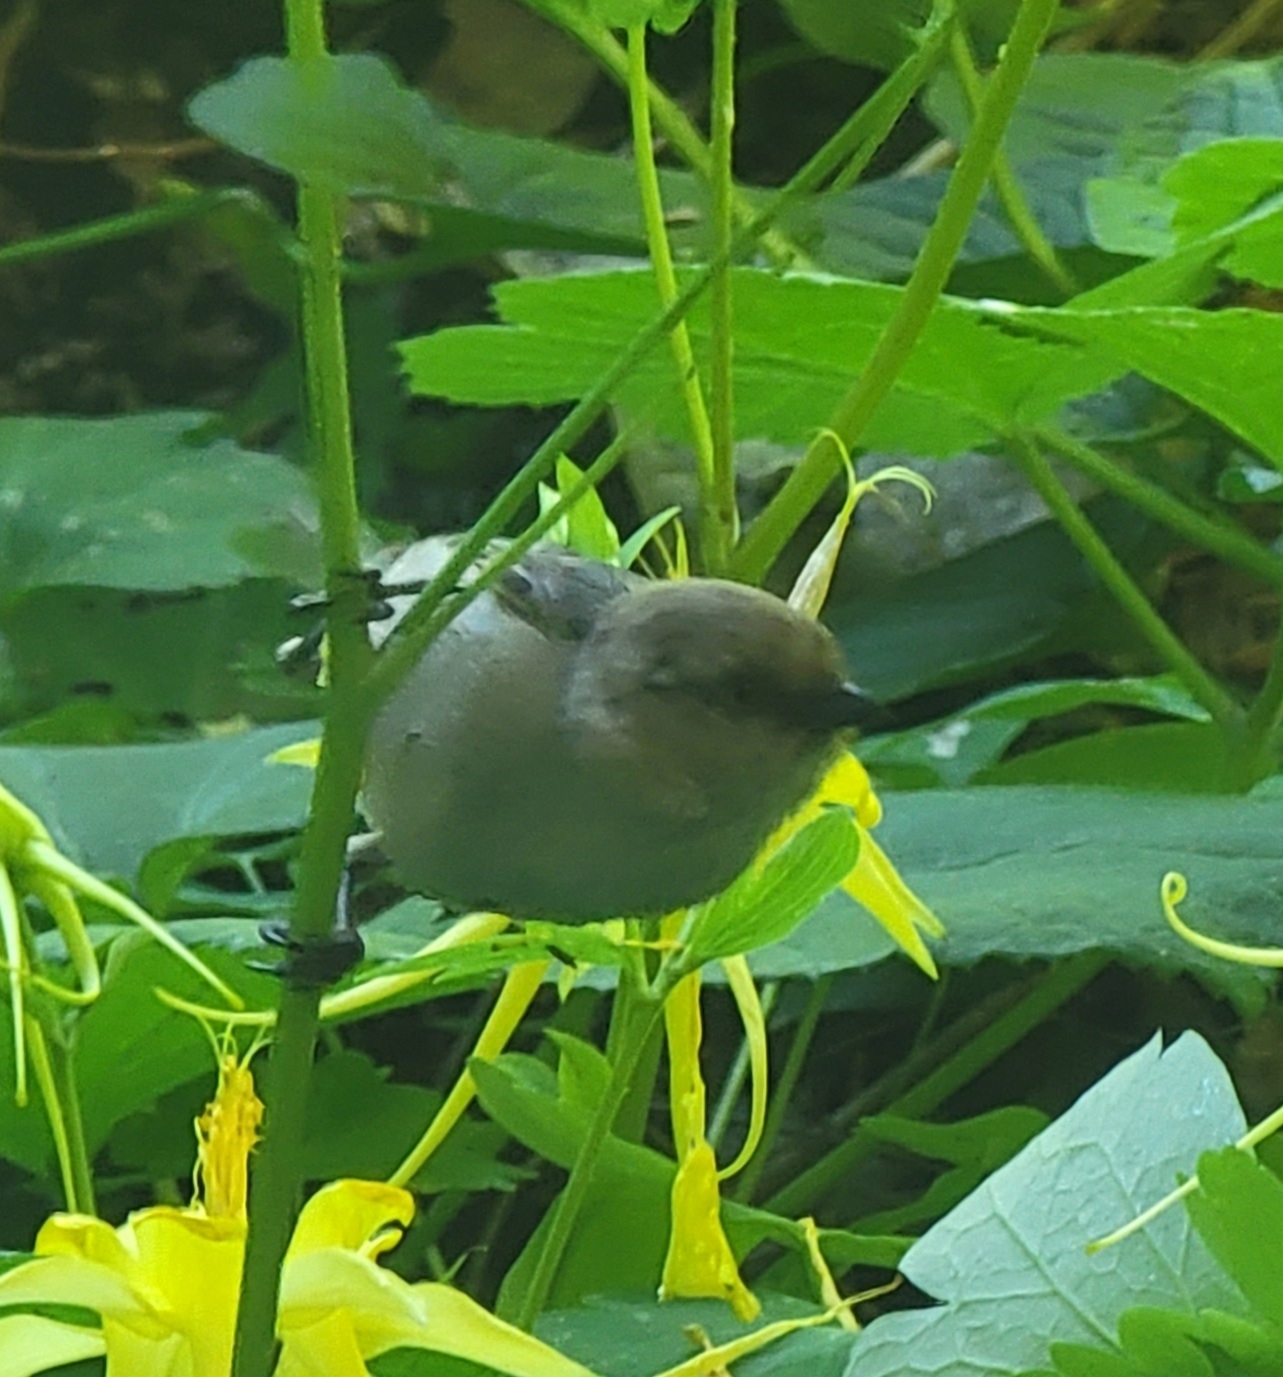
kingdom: Animalia
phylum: Chordata
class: Aves
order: Passeriformes
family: Aegithalidae
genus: Psaltriparus
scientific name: Psaltriparus minimus
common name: American bushtit
